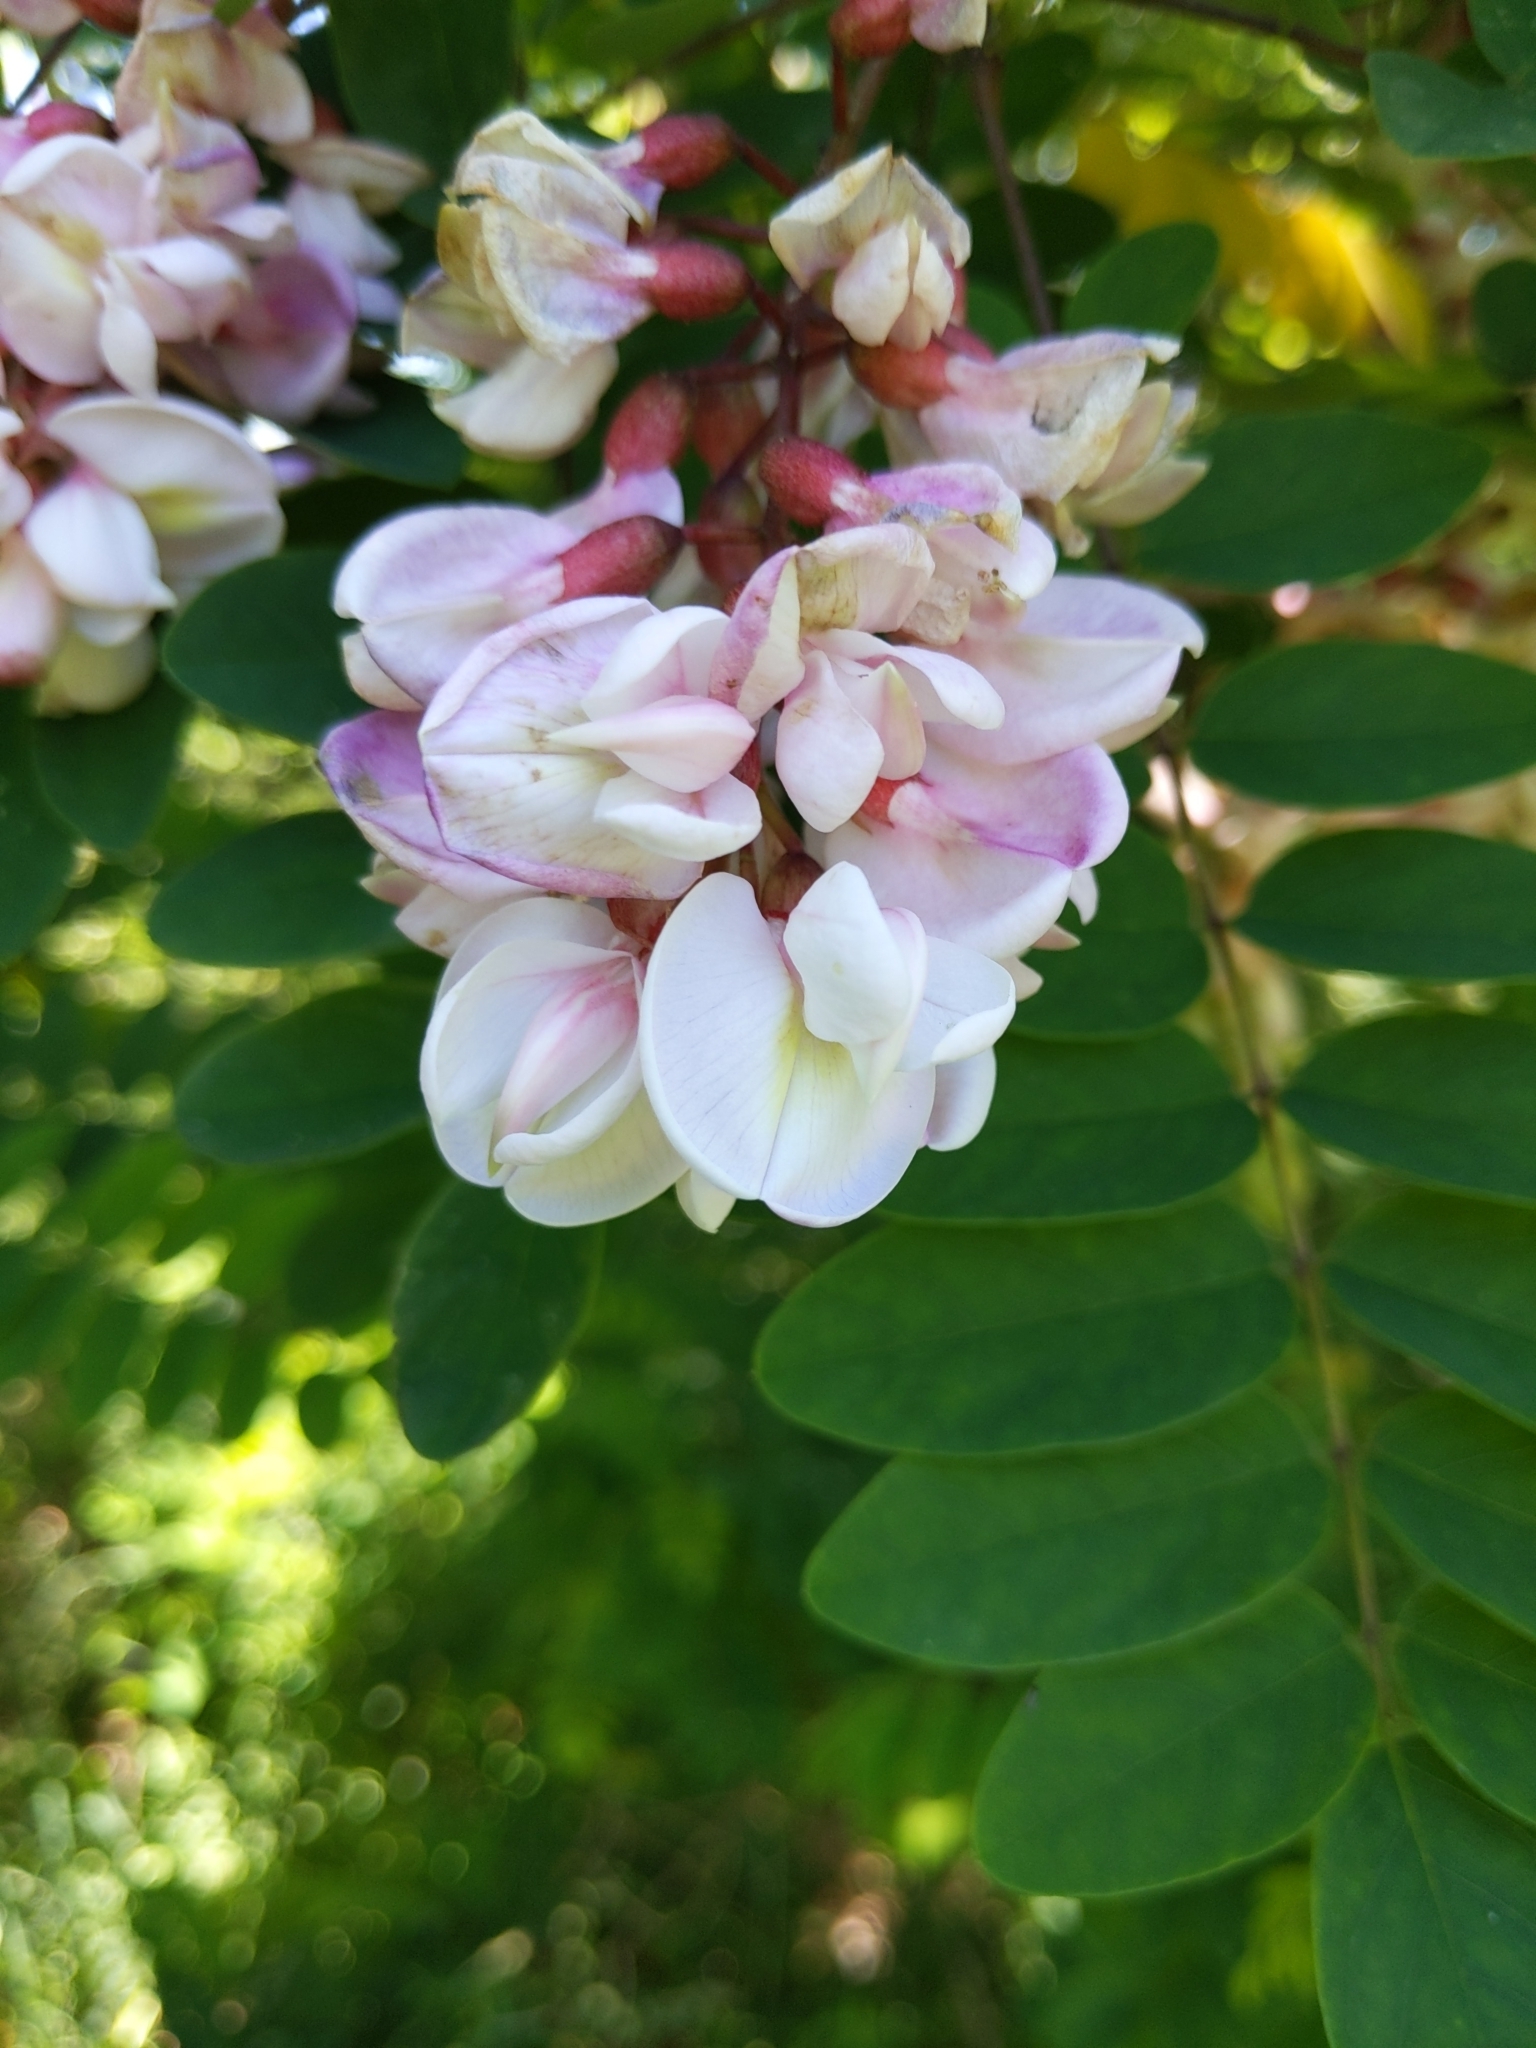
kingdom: Plantae
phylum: Tracheophyta
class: Magnoliopsida
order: Fabales
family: Fabaceae
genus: Robinia
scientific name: Robinia viscosa
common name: Clammy locust
